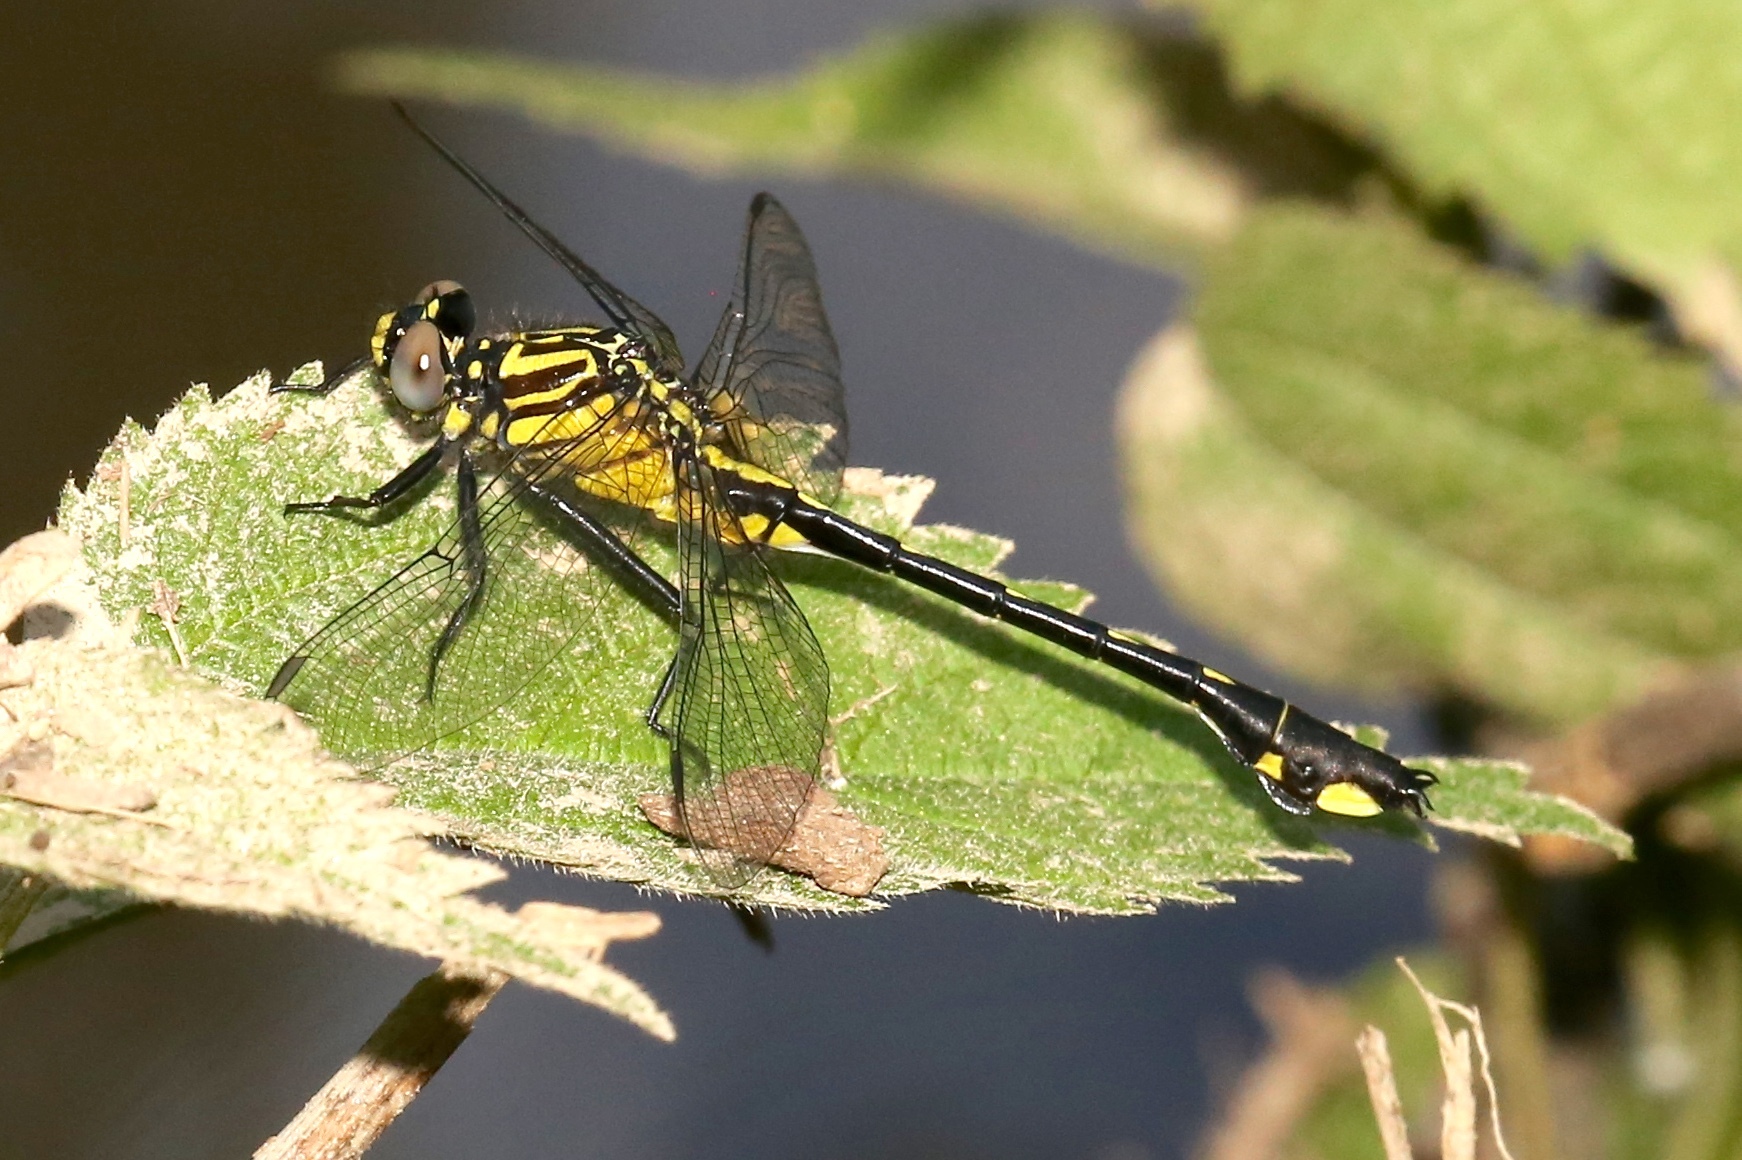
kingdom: Animalia
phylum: Arthropoda
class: Insecta
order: Odonata
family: Gomphidae
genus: Gomphurus
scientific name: Gomphurus vastus
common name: Cobra clubtail
